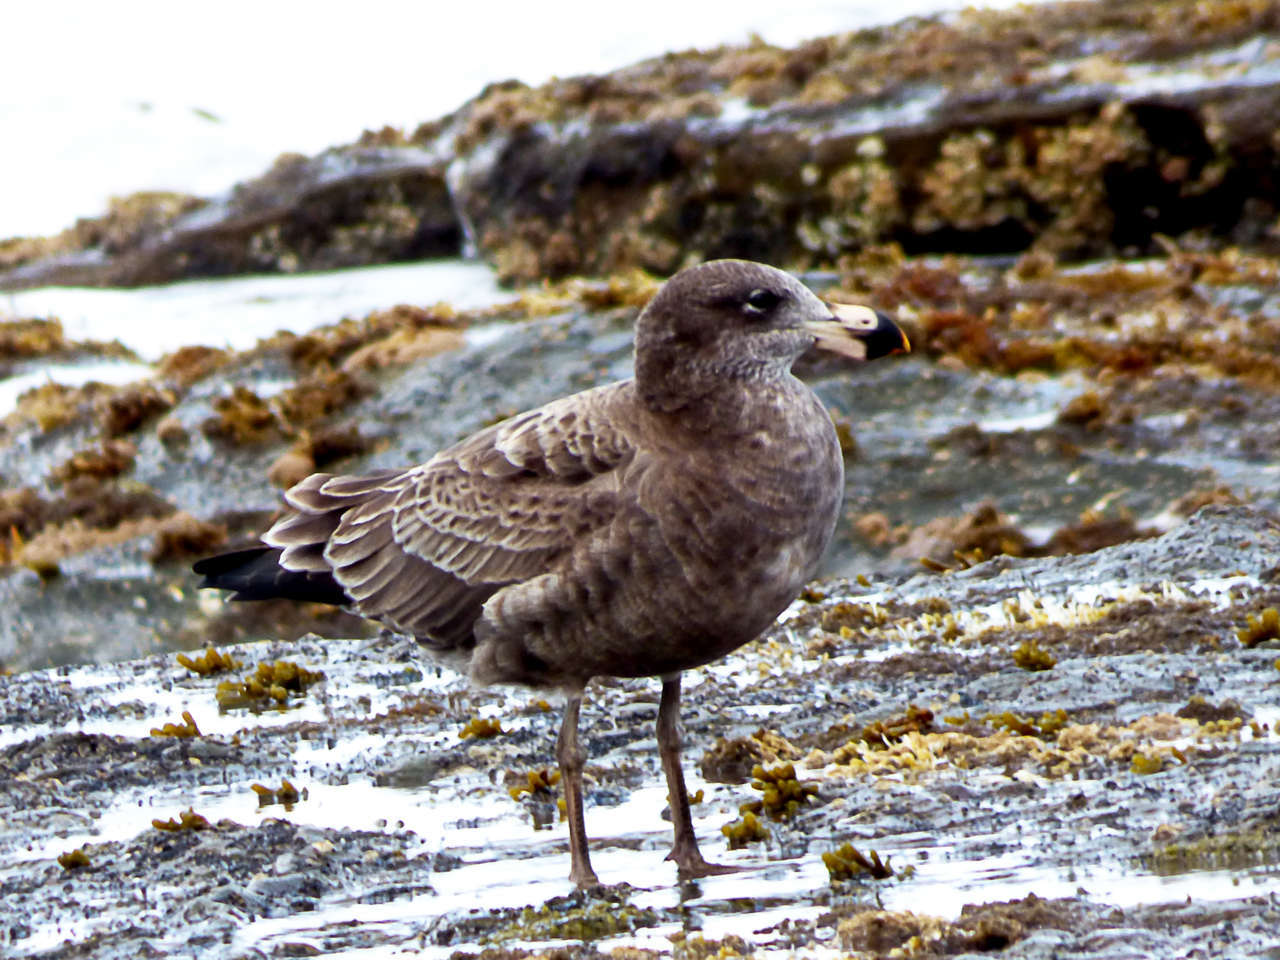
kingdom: Animalia
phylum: Chordata
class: Aves
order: Charadriiformes
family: Laridae
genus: Larus
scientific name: Larus pacificus
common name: Pacific gull
